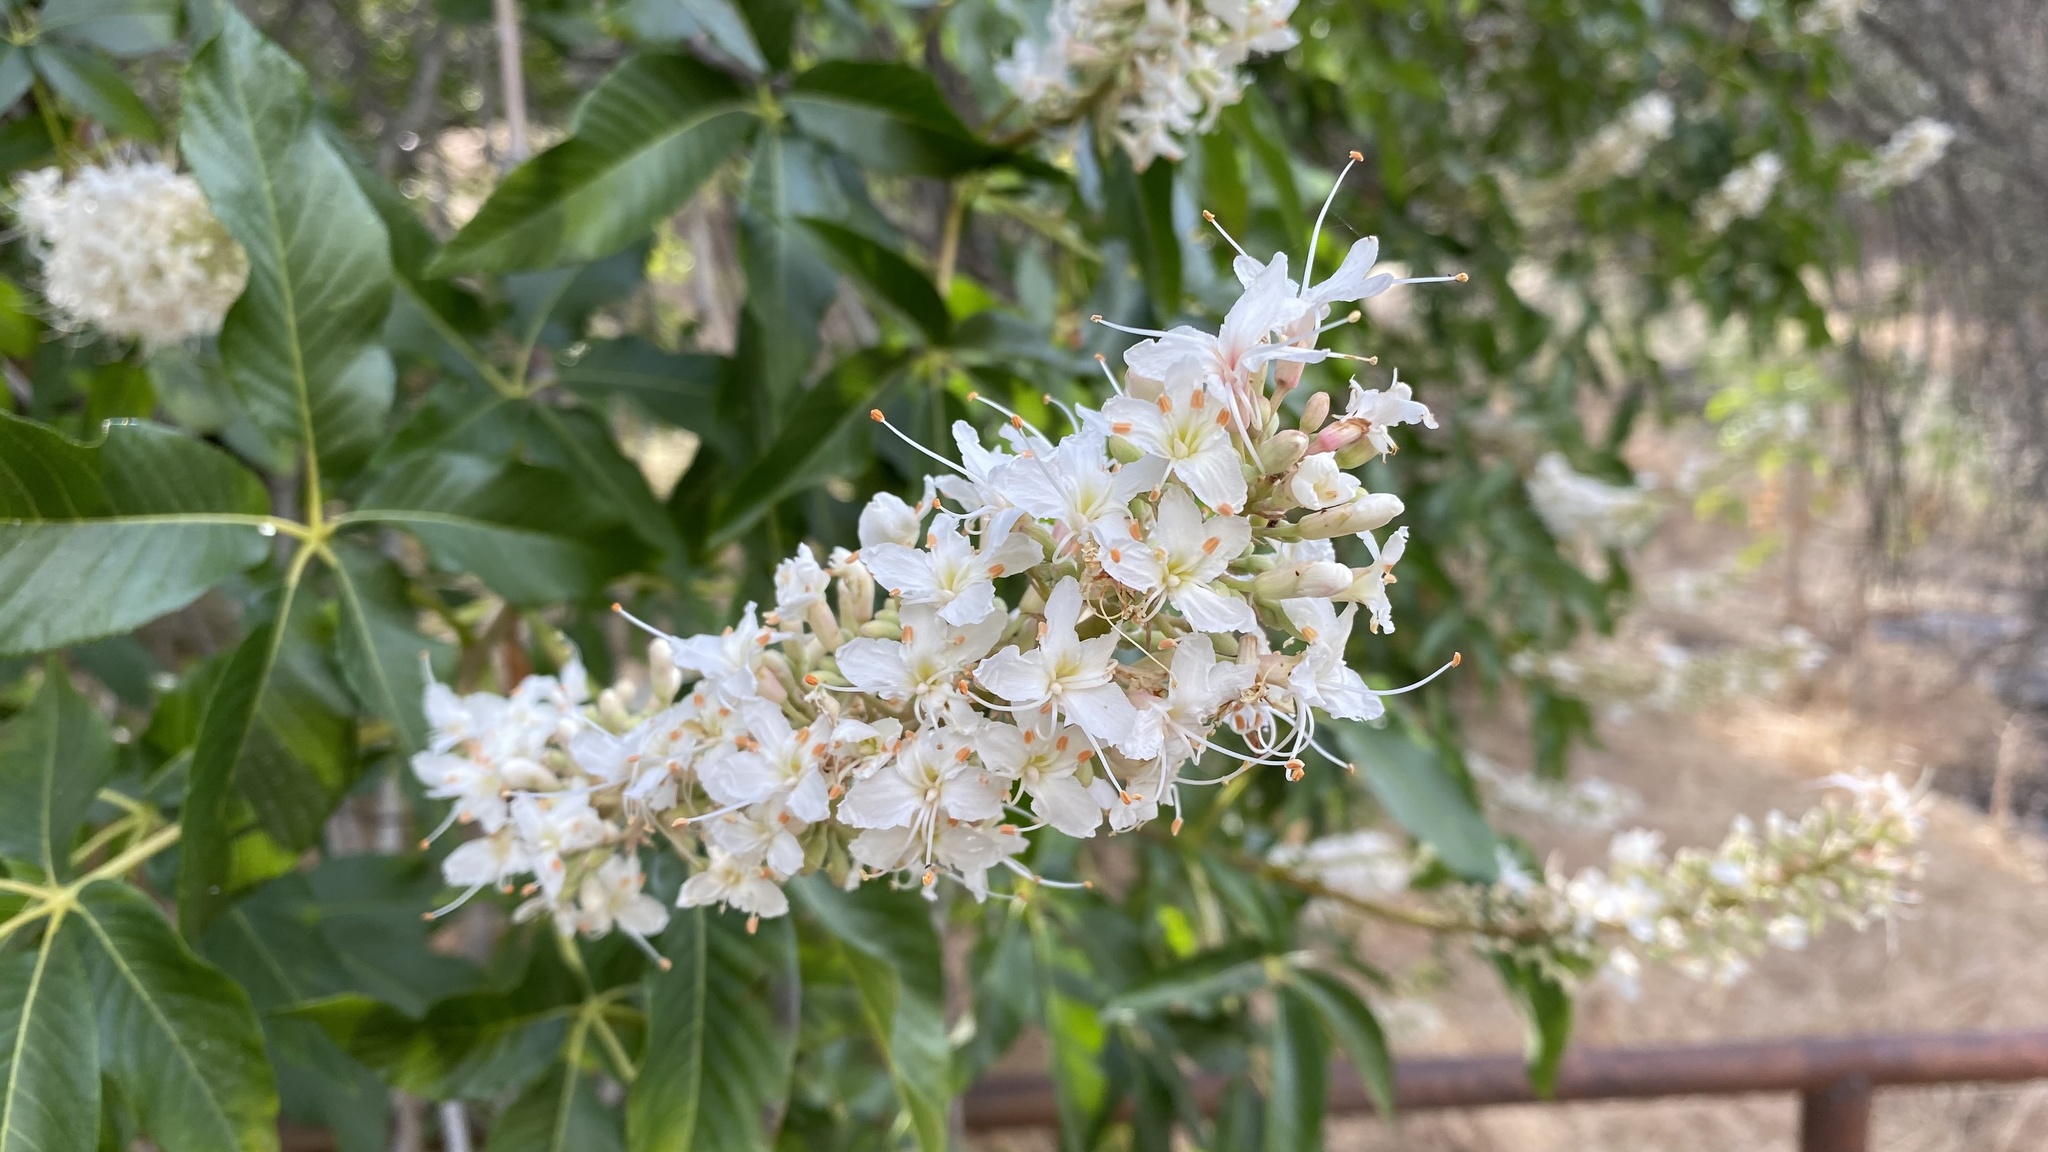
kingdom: Plantae
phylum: Tracheophyta
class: Magnoliopsida
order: Sapindales
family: Sapindaceae
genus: Aesculus
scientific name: Aesculus californica
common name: California buckeye
